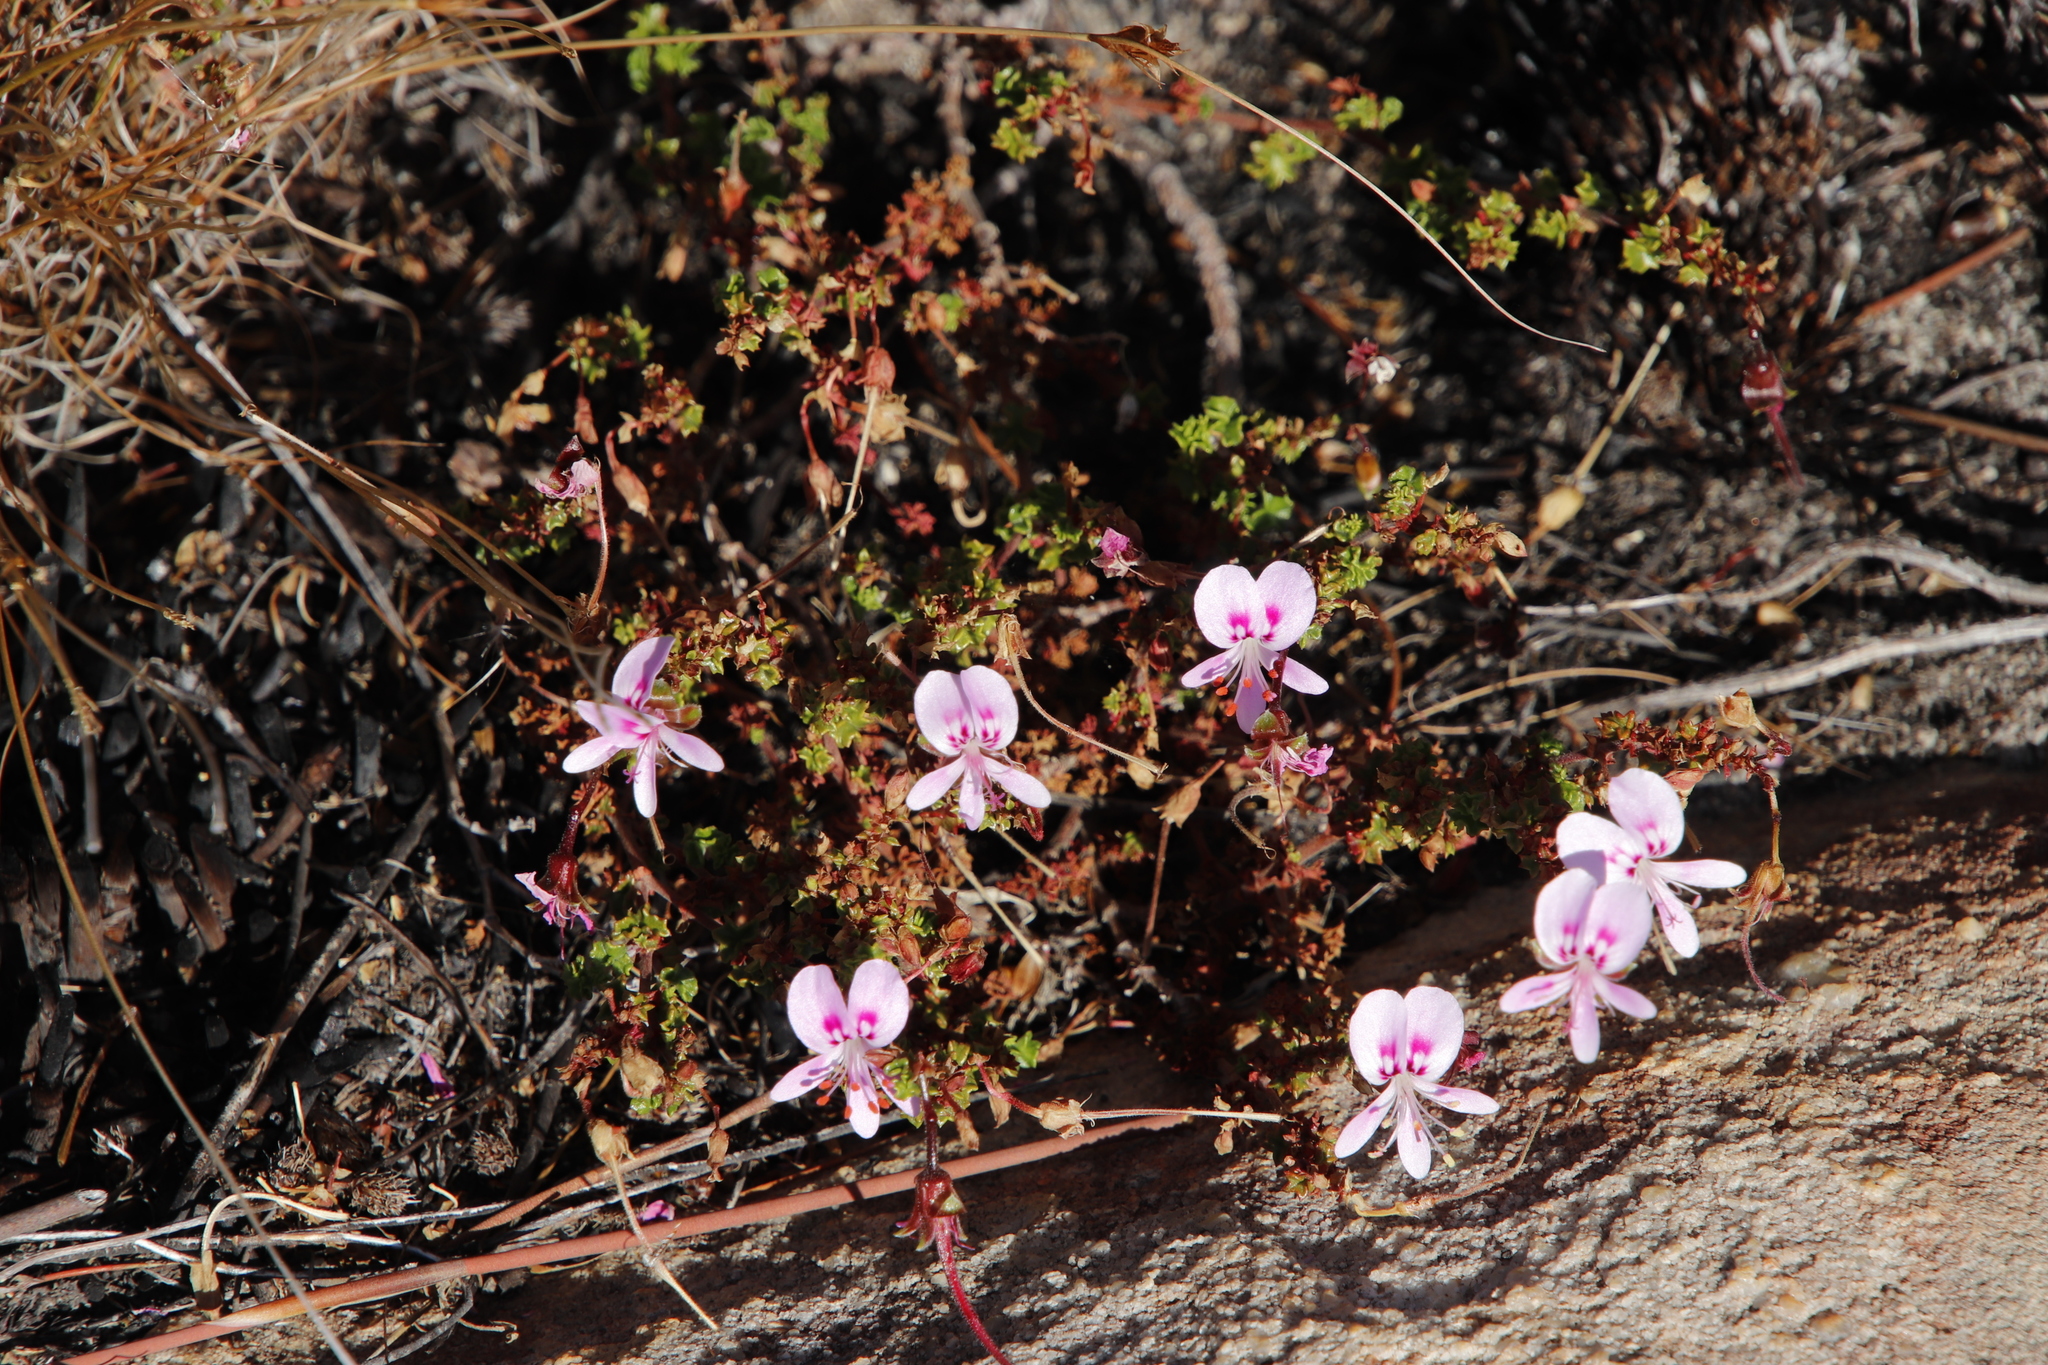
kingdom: Plantae
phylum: Tracheophyta
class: Magnoliopsida
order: Geraniales
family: Geraniaceae
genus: Pelargonium
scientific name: Pelargonium englerianum
